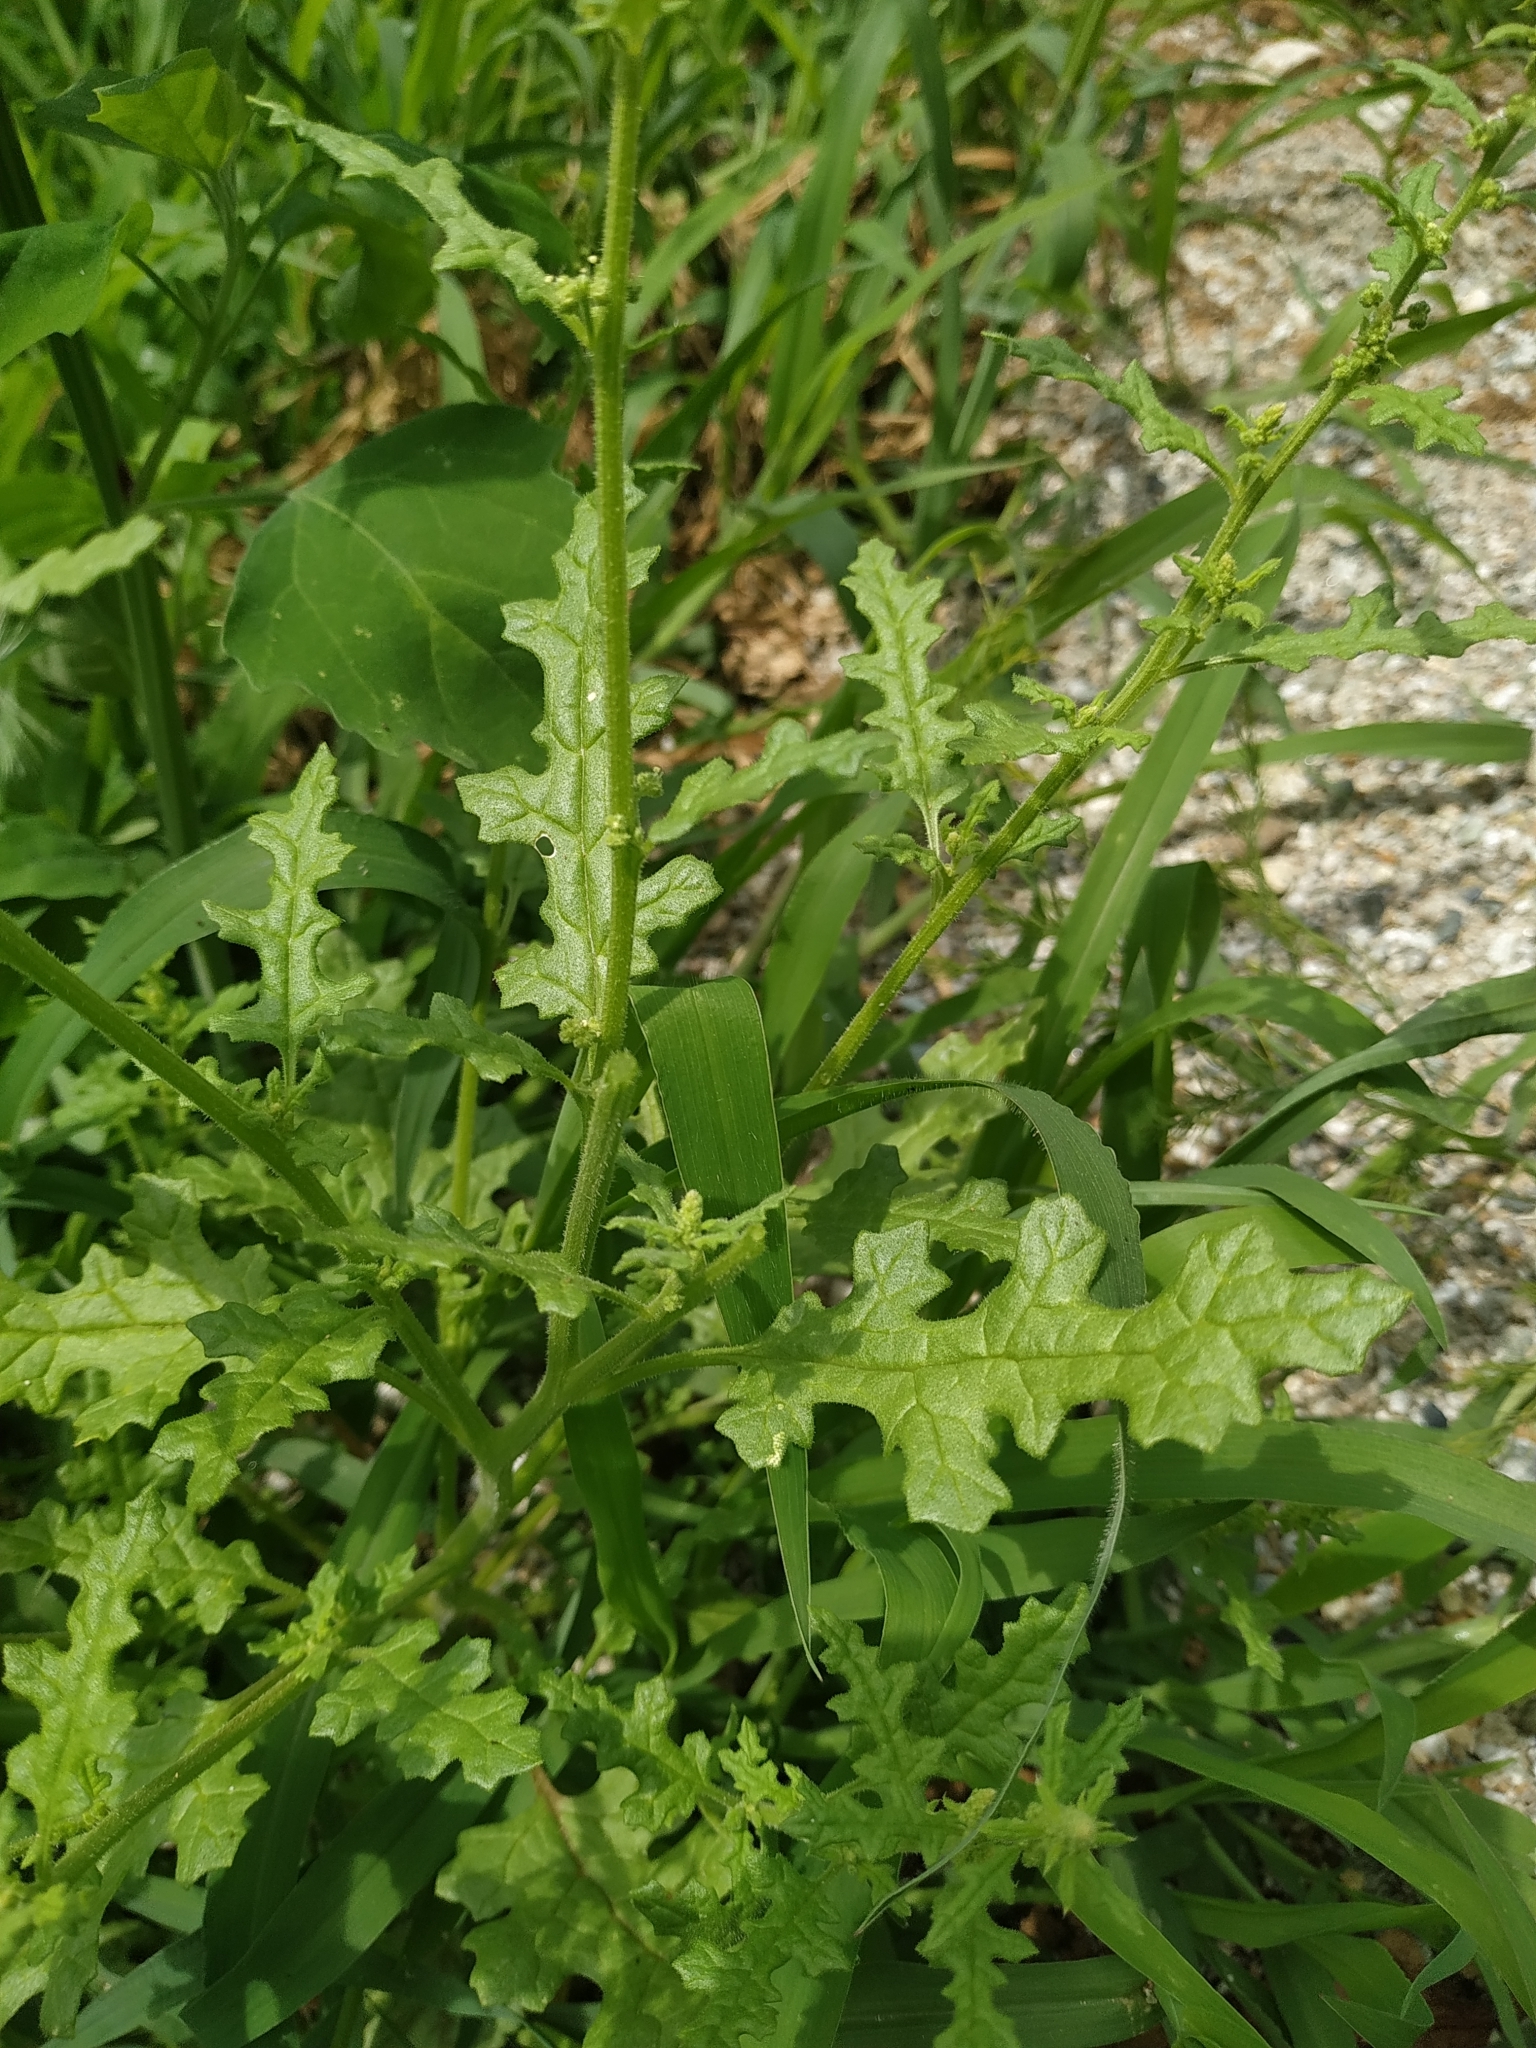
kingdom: Plantae
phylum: Tracheophyta
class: Magnoliopsida
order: Asterales
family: Asteraceae
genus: Senecio
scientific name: Senecio vulgaris
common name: Old-man-in-the-spring
